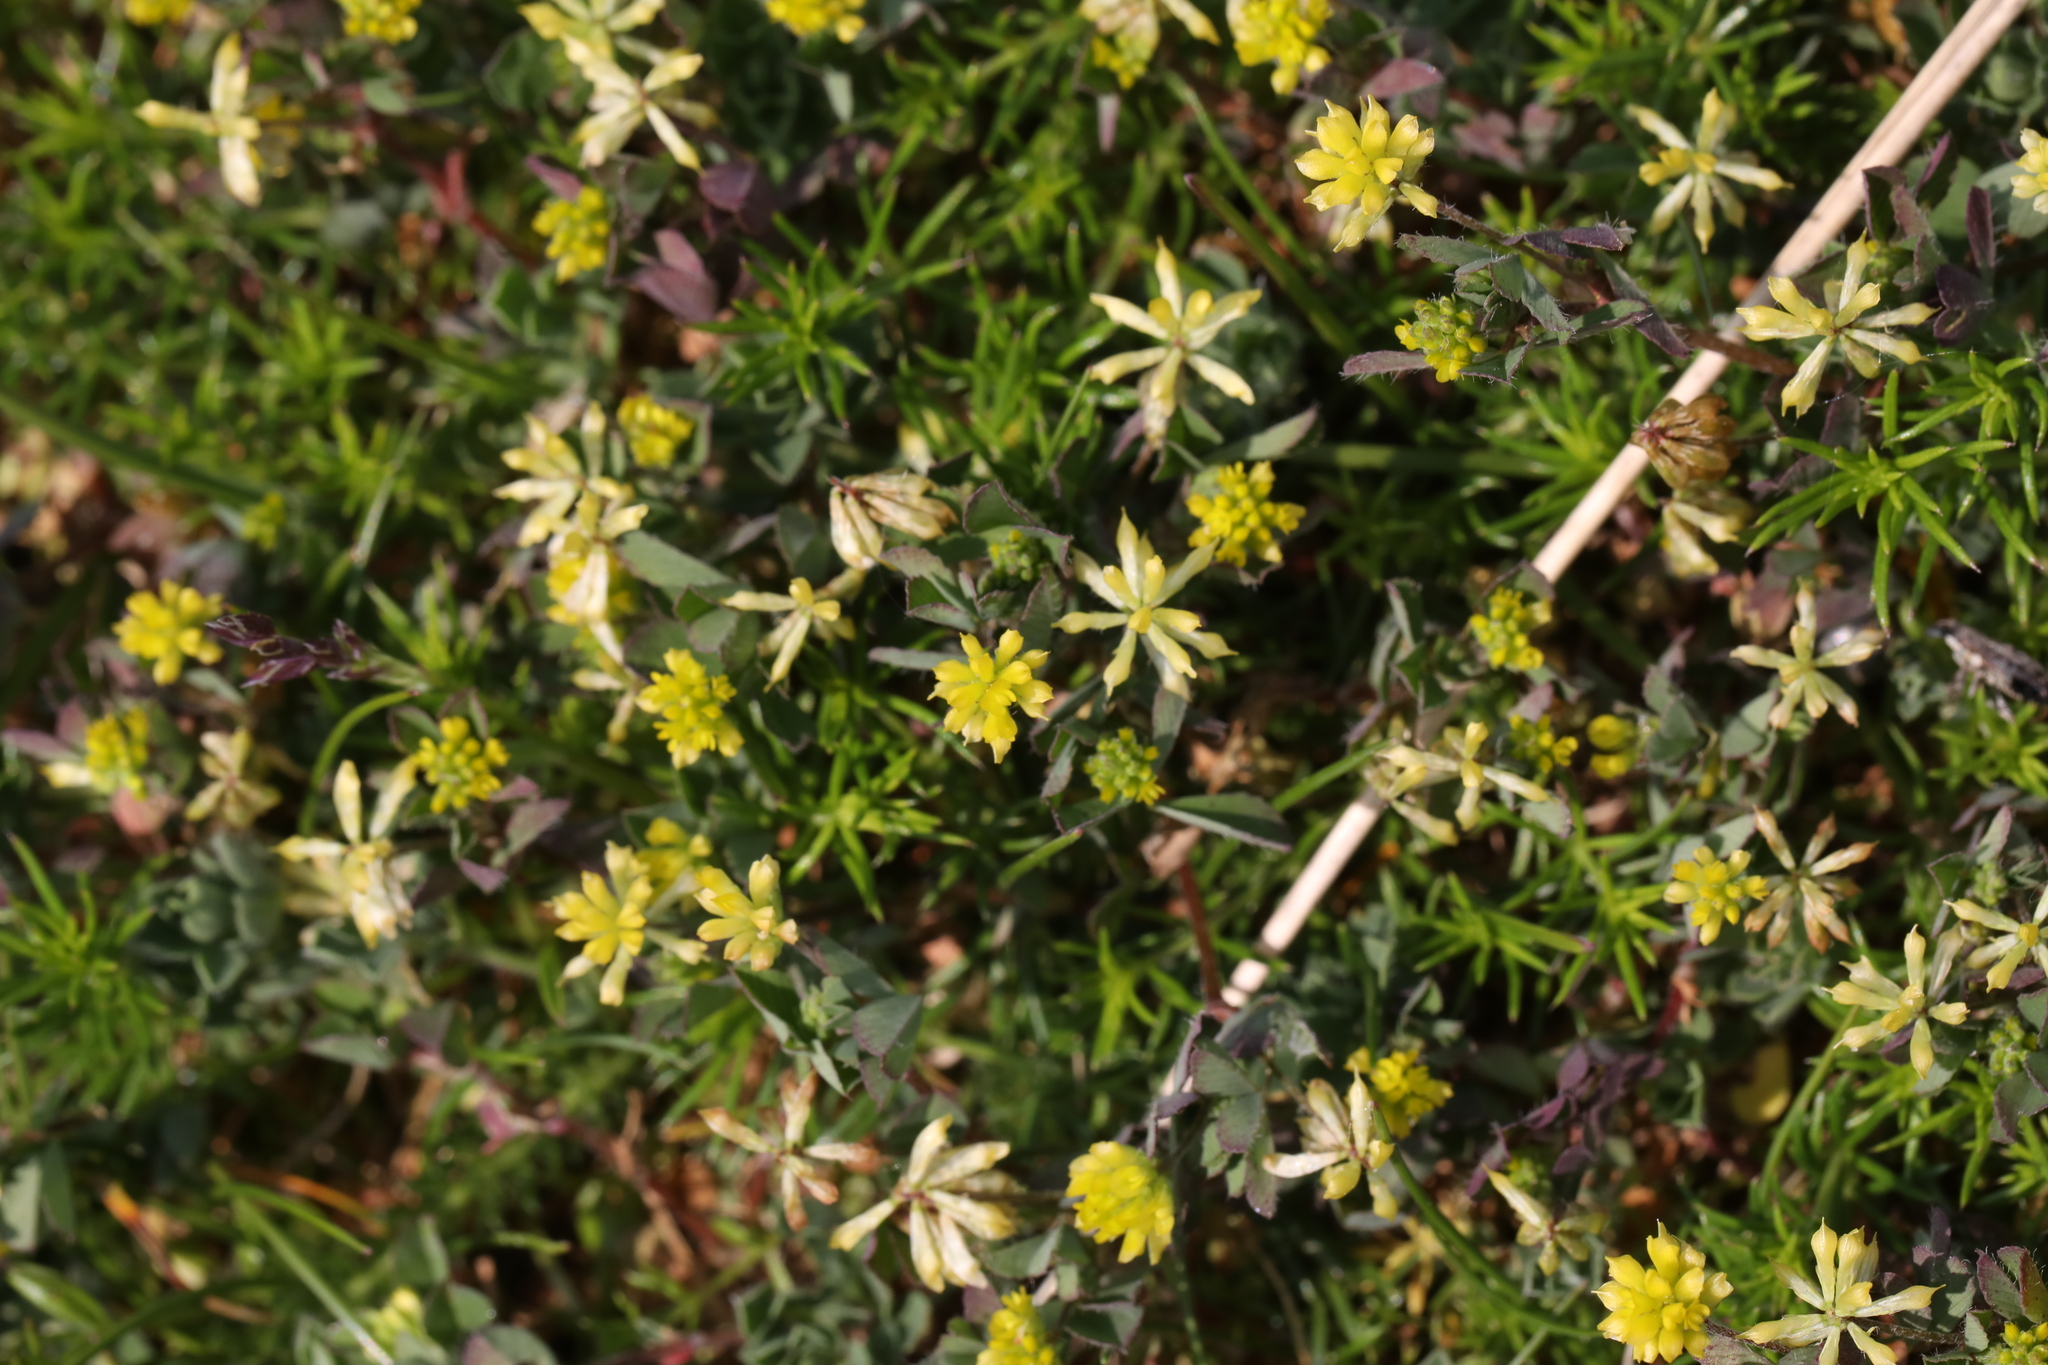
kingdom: Plantae
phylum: Tracheophyta
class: Magnoliopsida
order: Fabales
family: Fabaceae
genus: Trifolium
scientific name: Trifolium dubium
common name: Suckling clover
